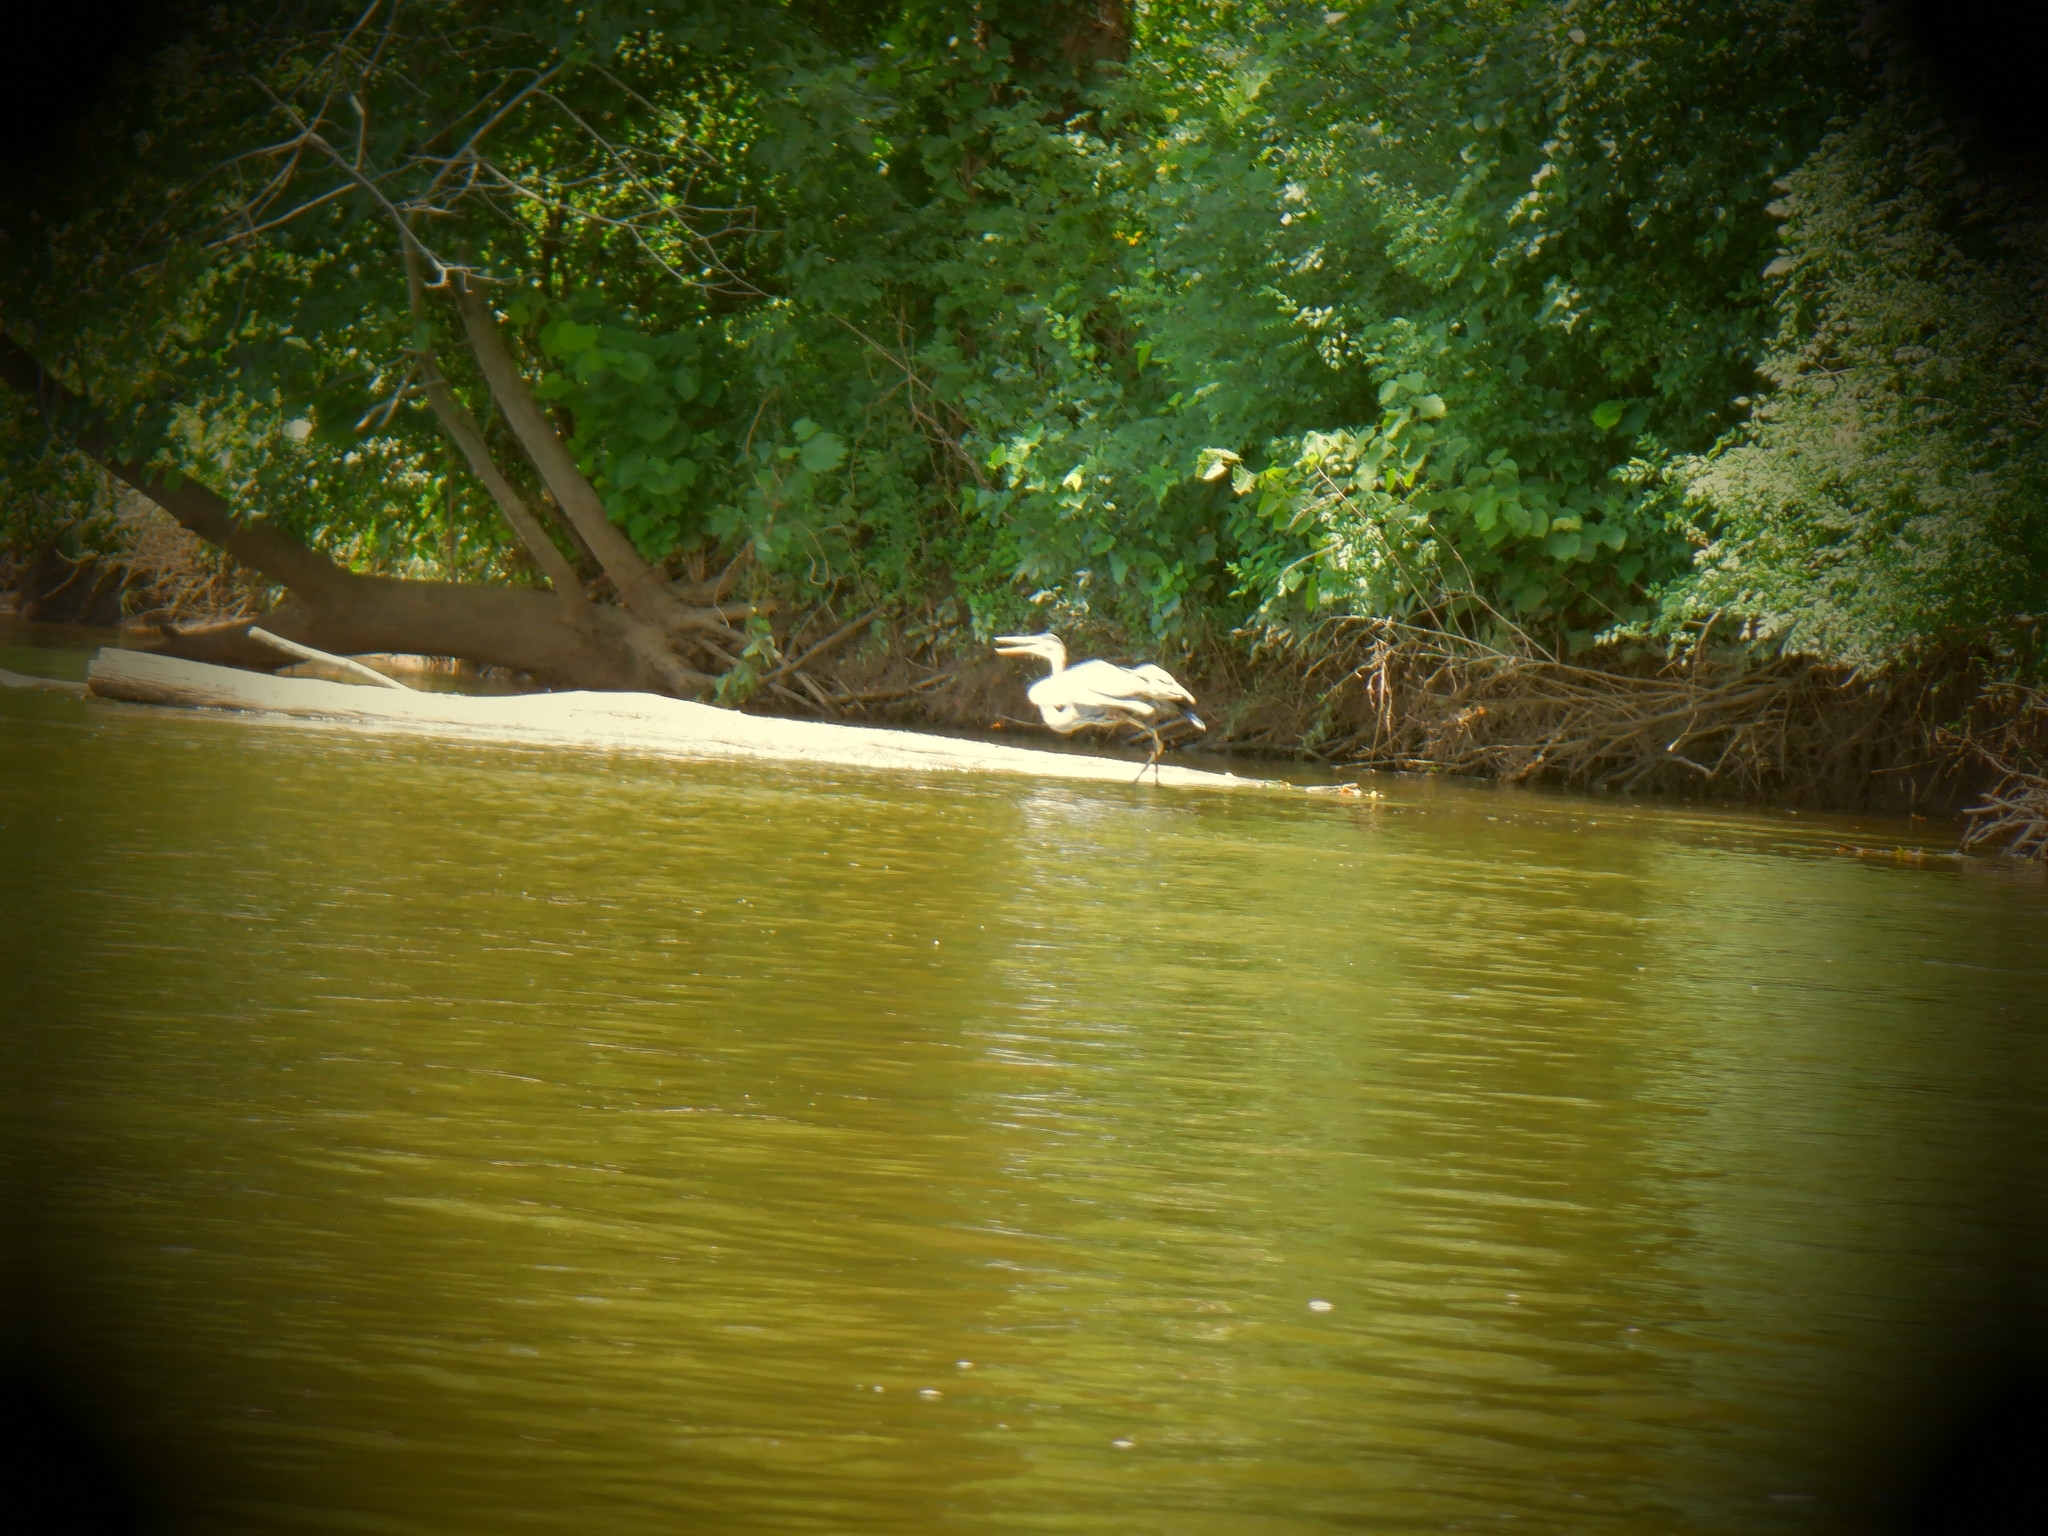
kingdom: Animalia
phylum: Chordata
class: Aves
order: Pelecaniformes
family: Ardeidae
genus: Ardea
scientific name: Ardea herodias
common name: Great blue heron
